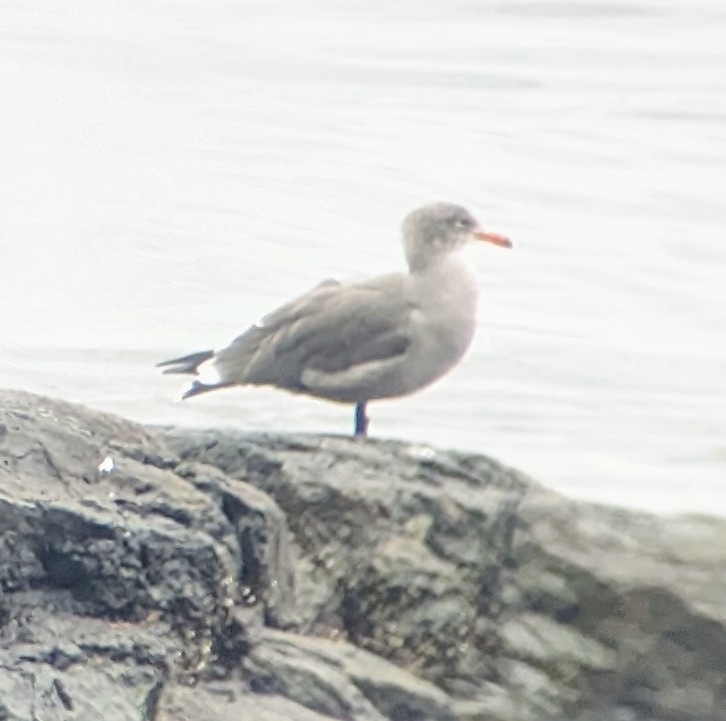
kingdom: Animalia
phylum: Chordata
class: Aves
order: Charadriiformes
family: Laridae
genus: Larus
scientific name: Larus heermanni
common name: Heermann's gull
